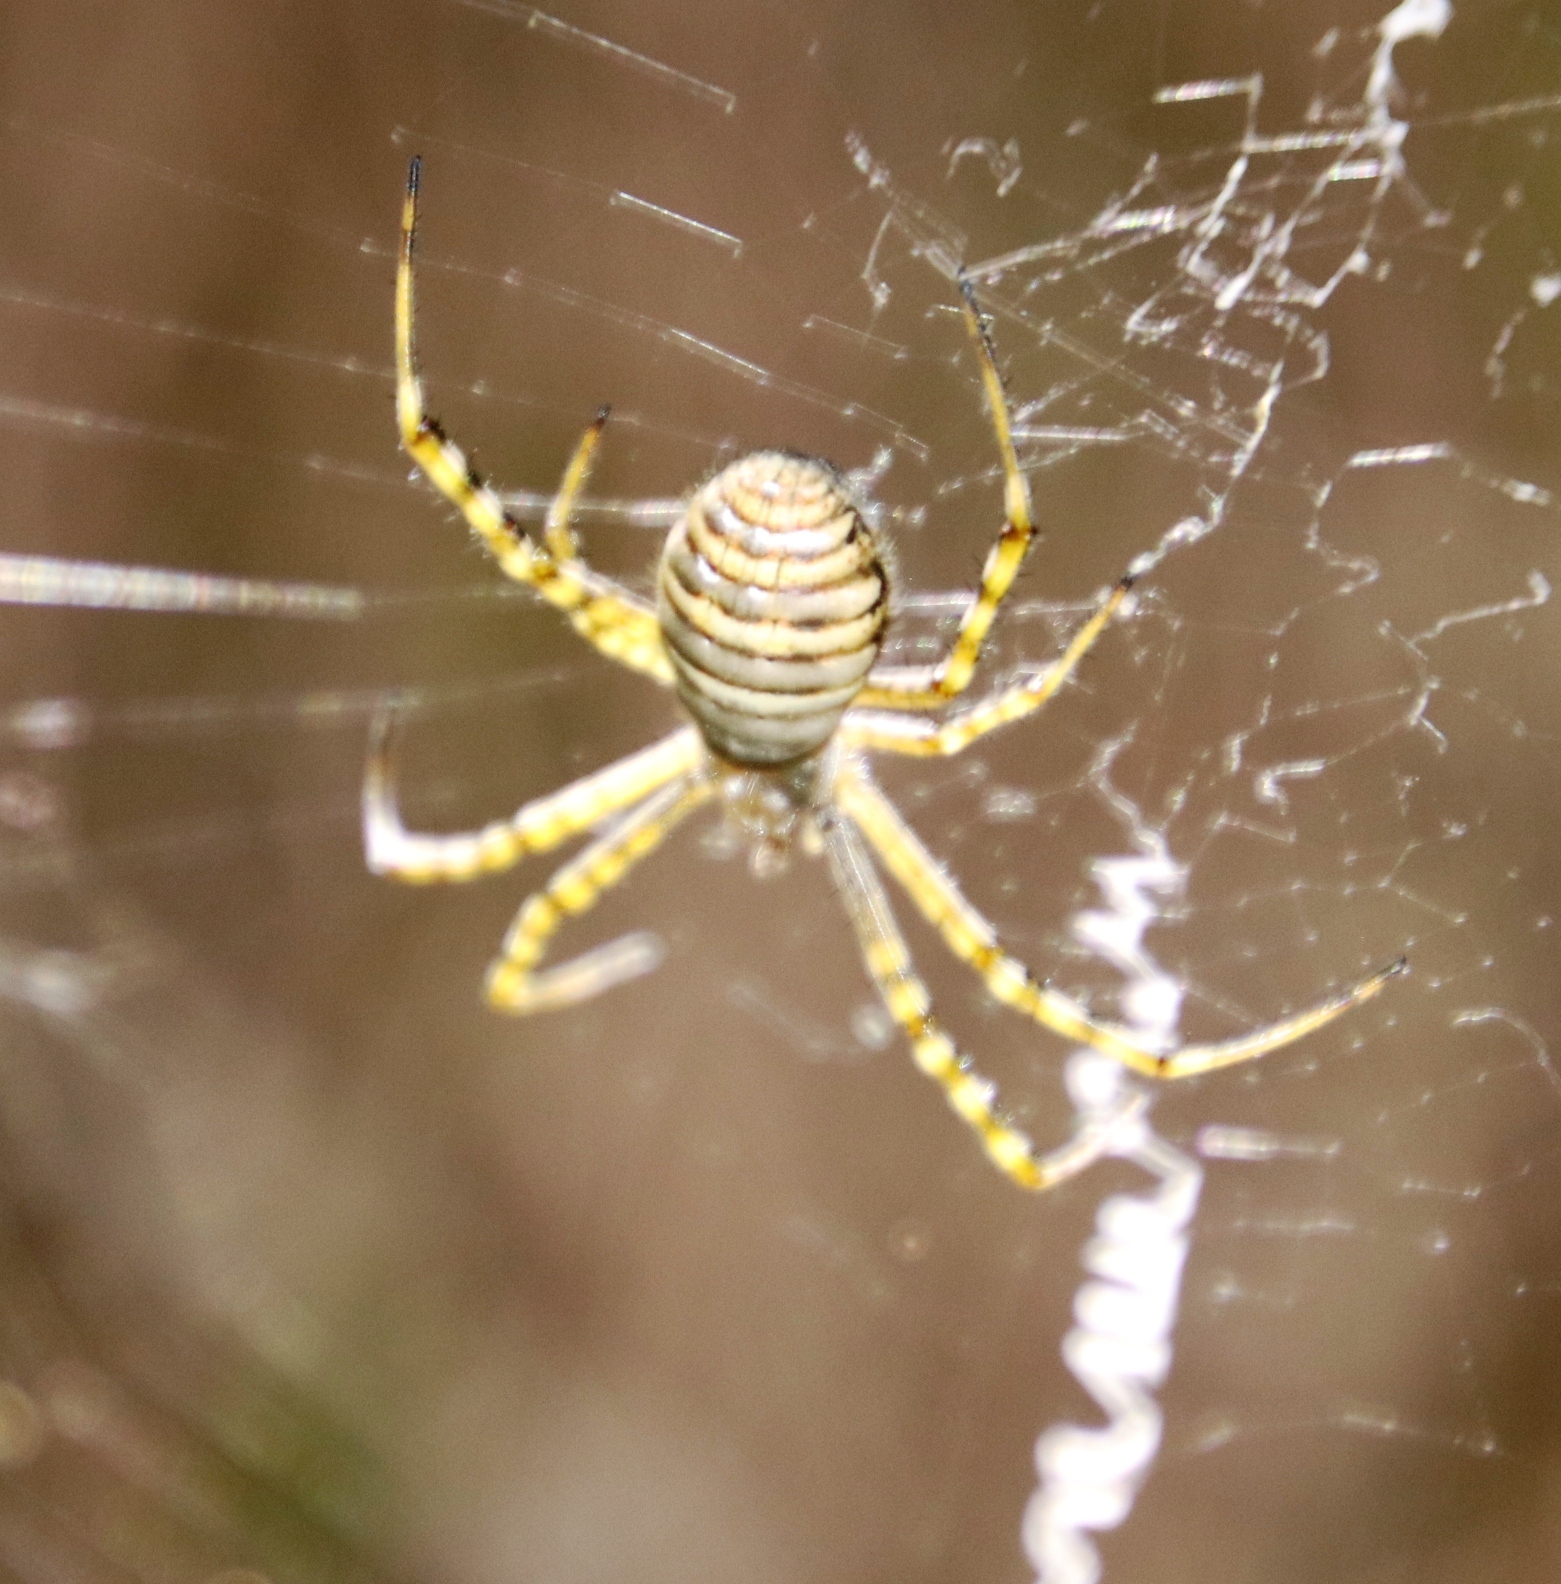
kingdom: Animalia
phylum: Arthropoda
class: Arachnida
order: Araneae
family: Araneidae
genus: Argiope
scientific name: Argiope trifasciata
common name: Banded garden spider
